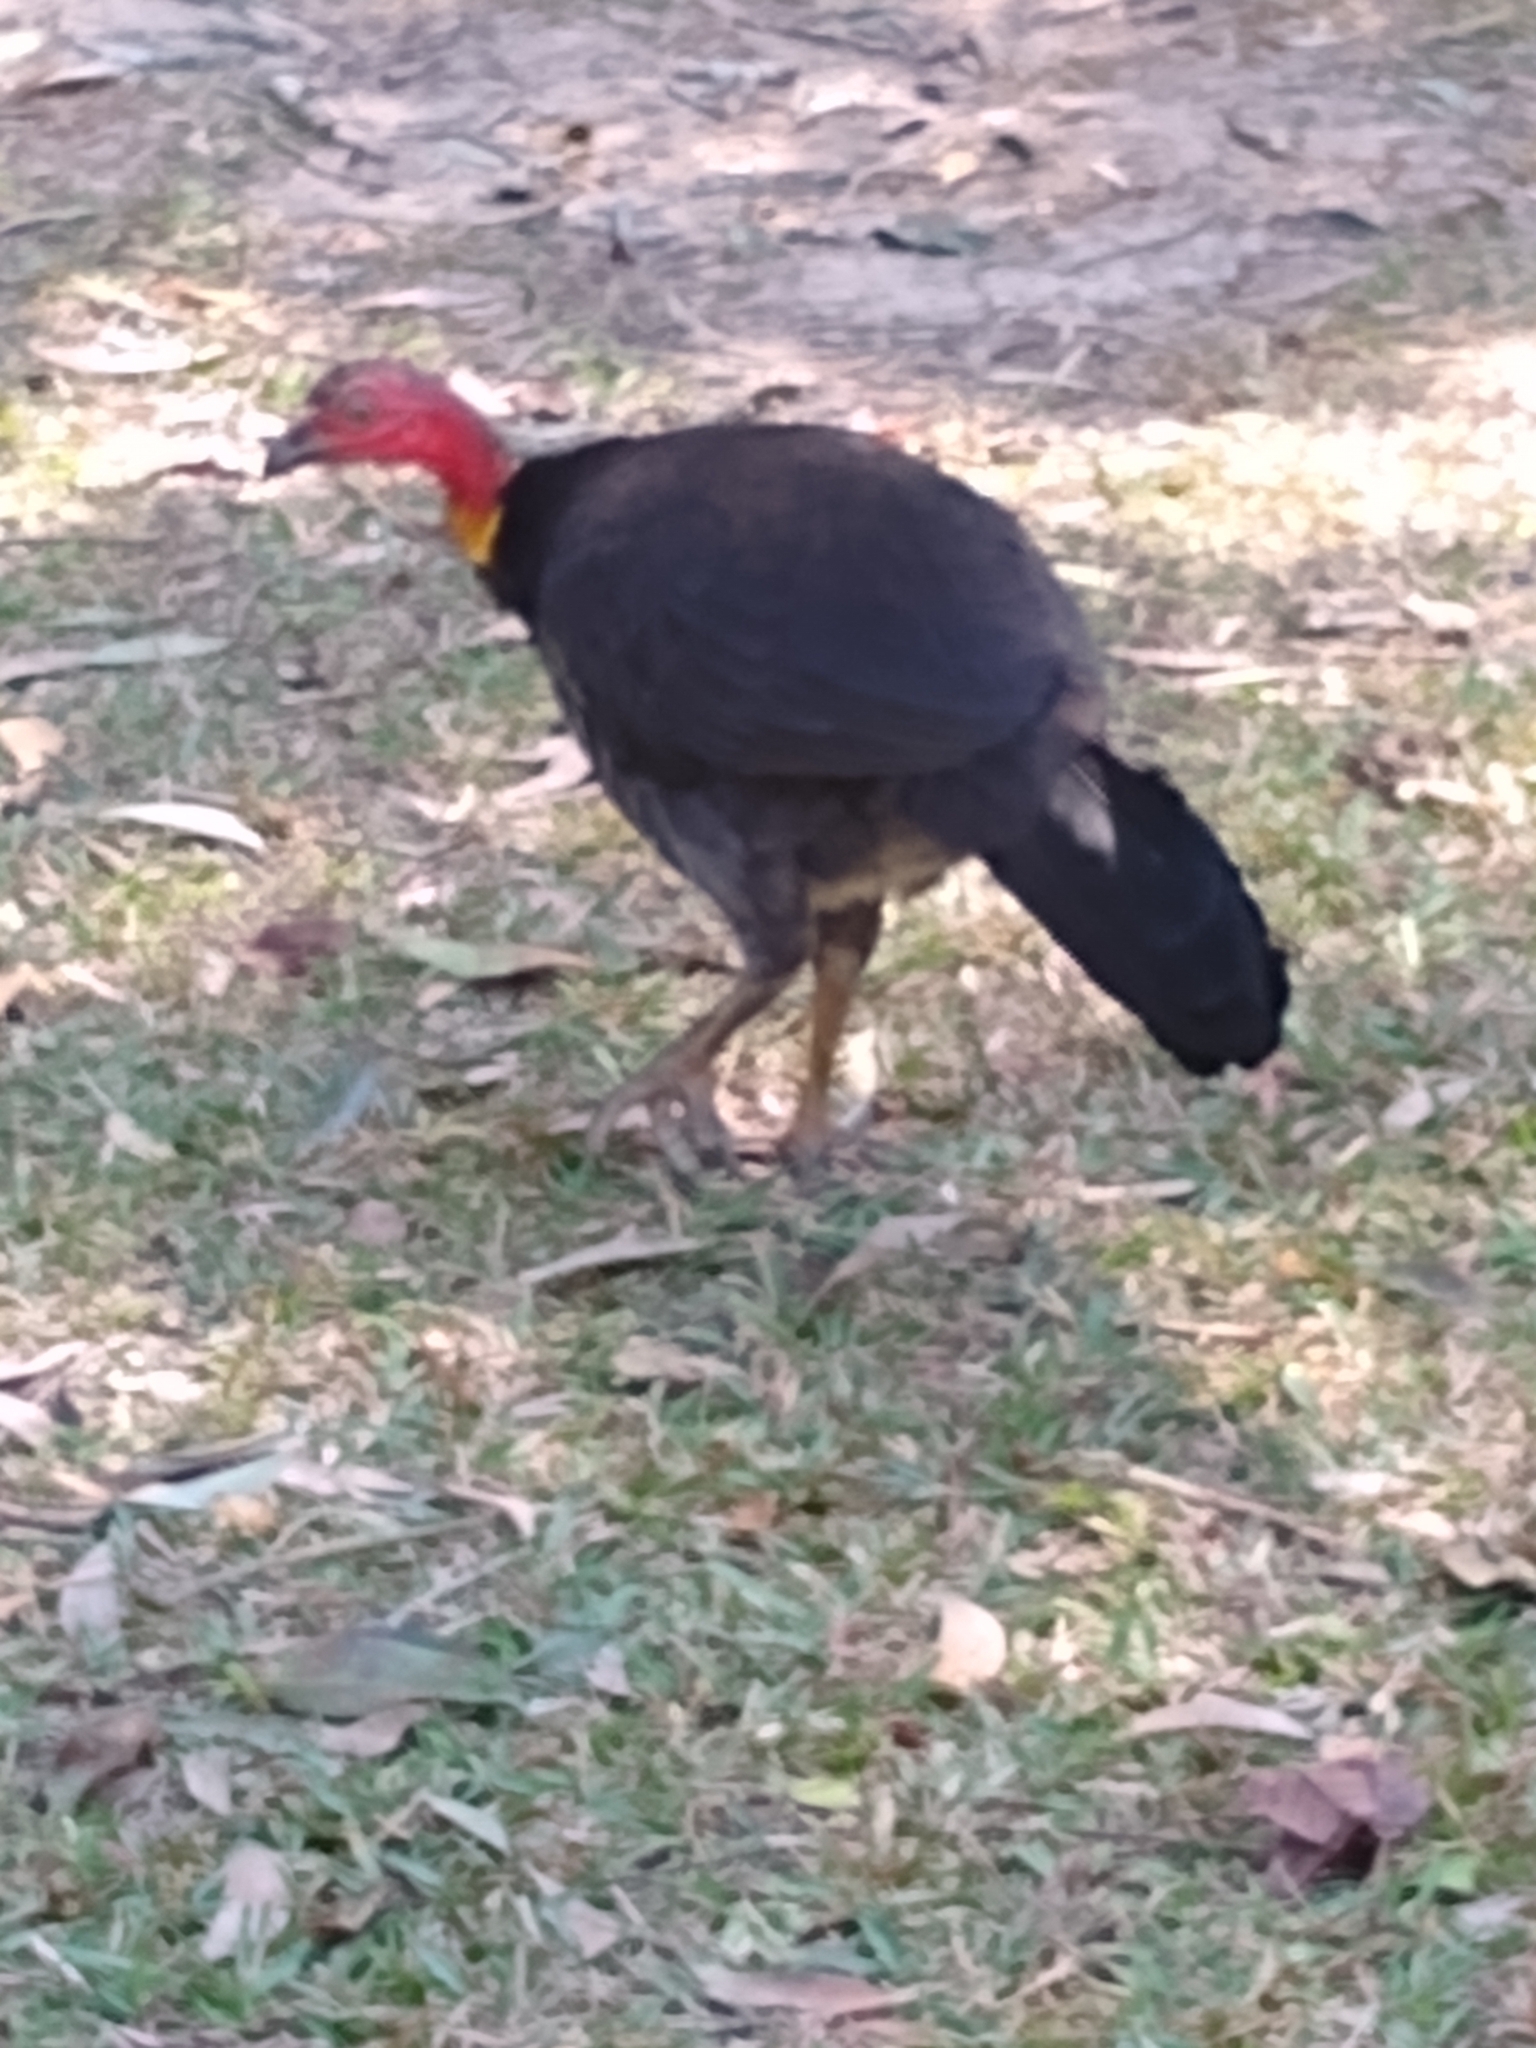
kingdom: Animalia
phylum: Chordata
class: Aves
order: Galliformes
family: Megapodiidae
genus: Alectura
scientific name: Alectura lathami
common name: Australian brushturkey
